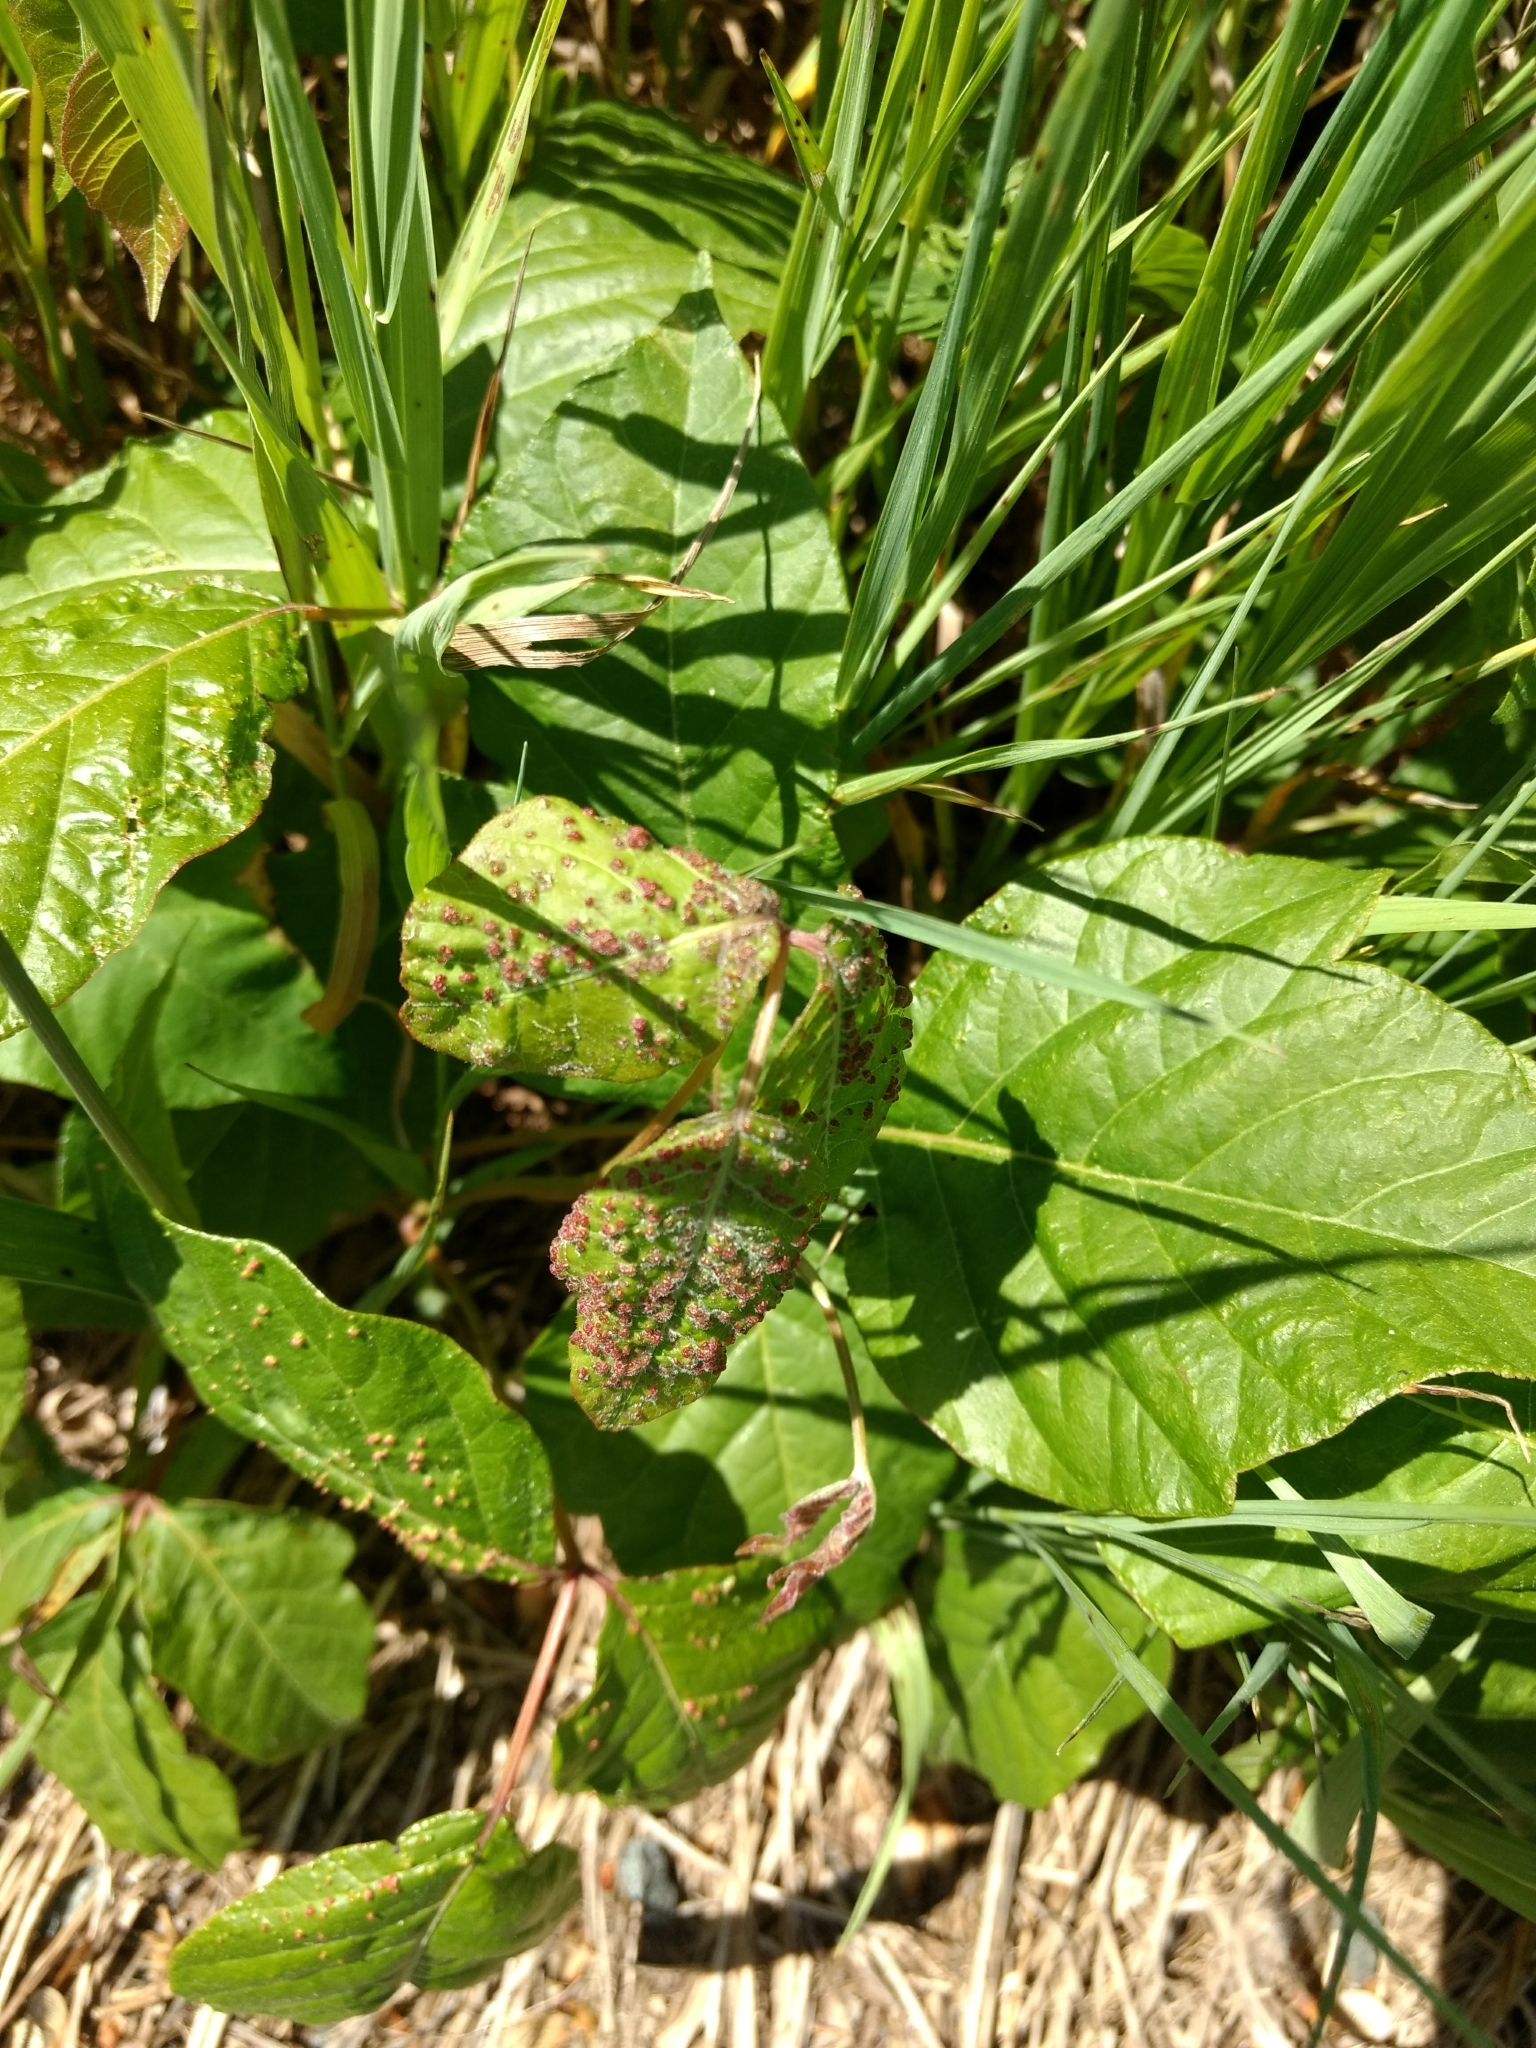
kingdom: Animalia
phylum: Arthropoda
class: Arachnida
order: Trombidiformes
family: Eriophyidae
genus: Aculops
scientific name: Aculops
